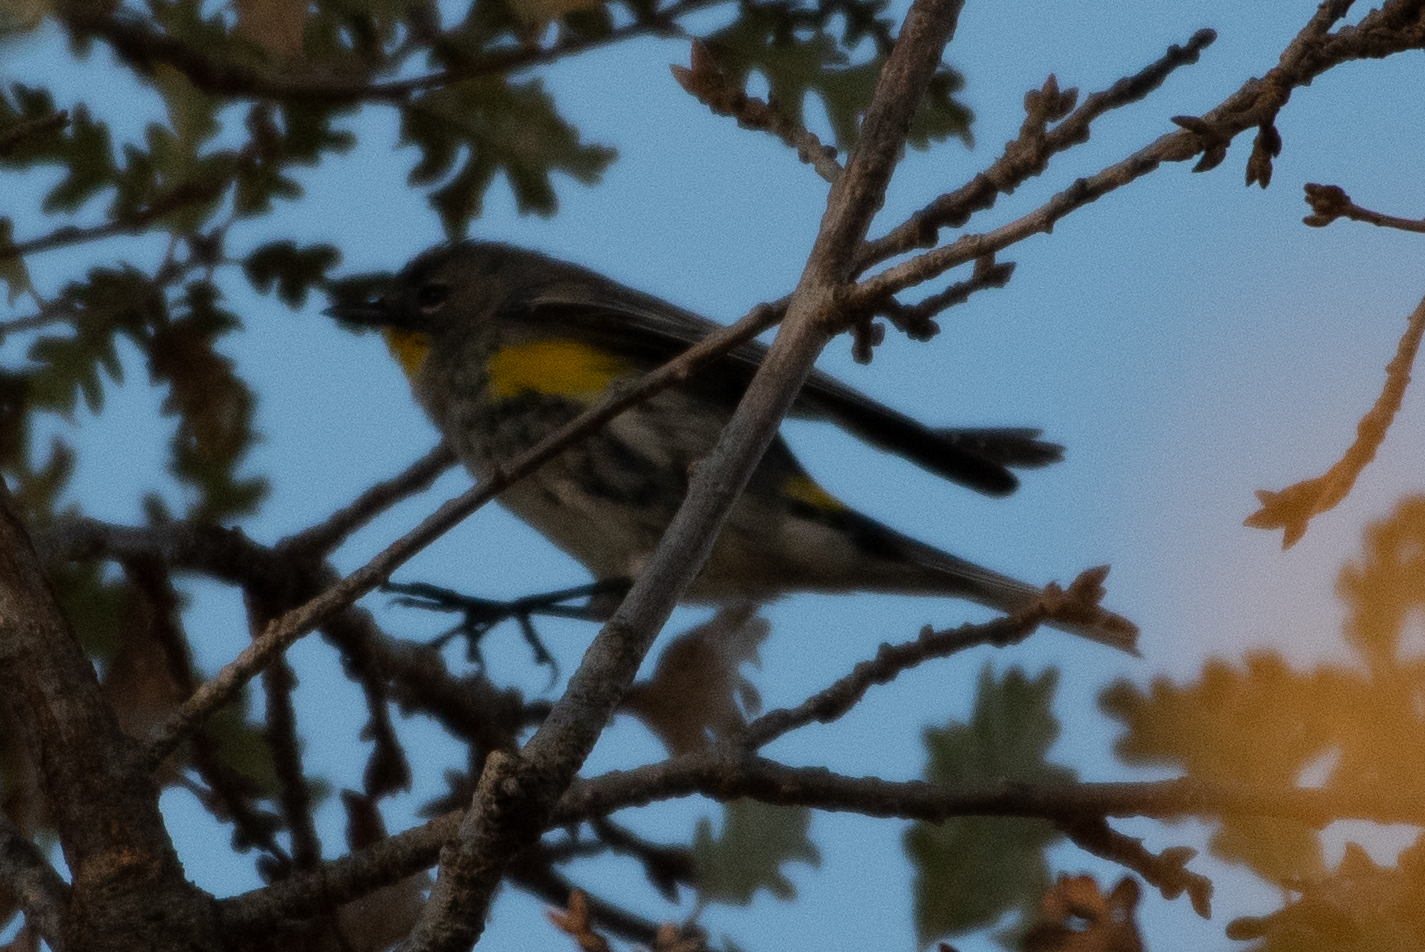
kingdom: Animalia
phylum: Chordata
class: Aves
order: Passeriformes
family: Parulidae
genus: Setophaga
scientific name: Setophaga coronata
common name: Myrtle warbler
